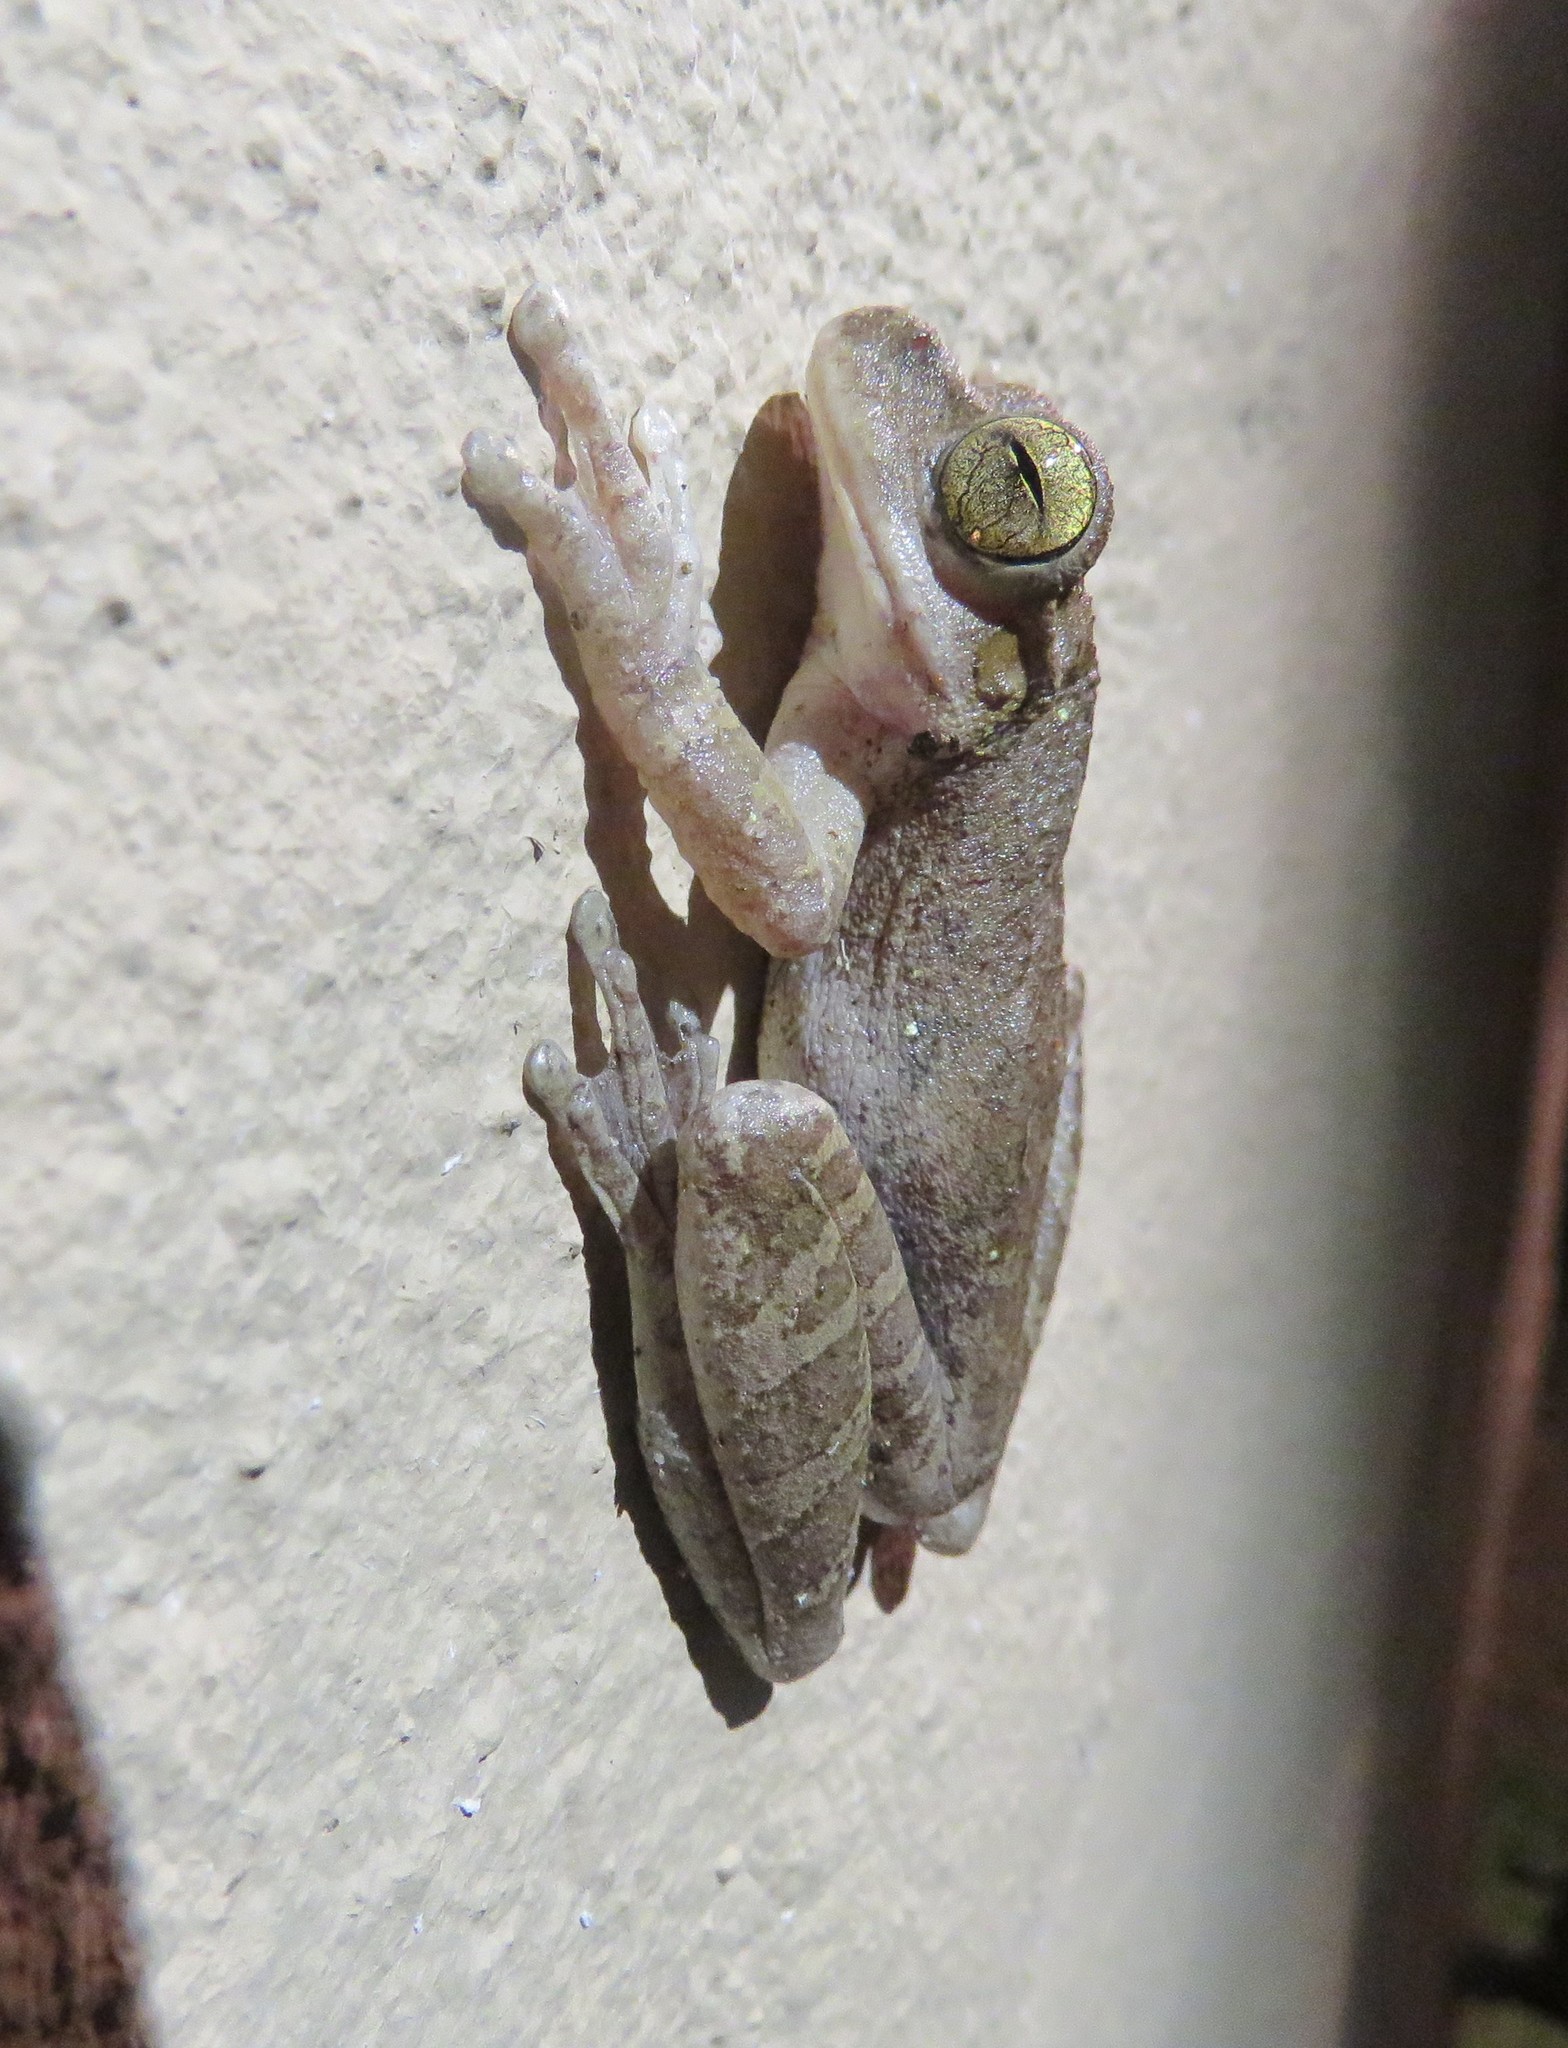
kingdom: Animalia
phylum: Chordata
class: Amphibia
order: Anura
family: Hylidae
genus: Smilisca
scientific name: Smilisca sordida
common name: Veragua cross-banded treefrog
